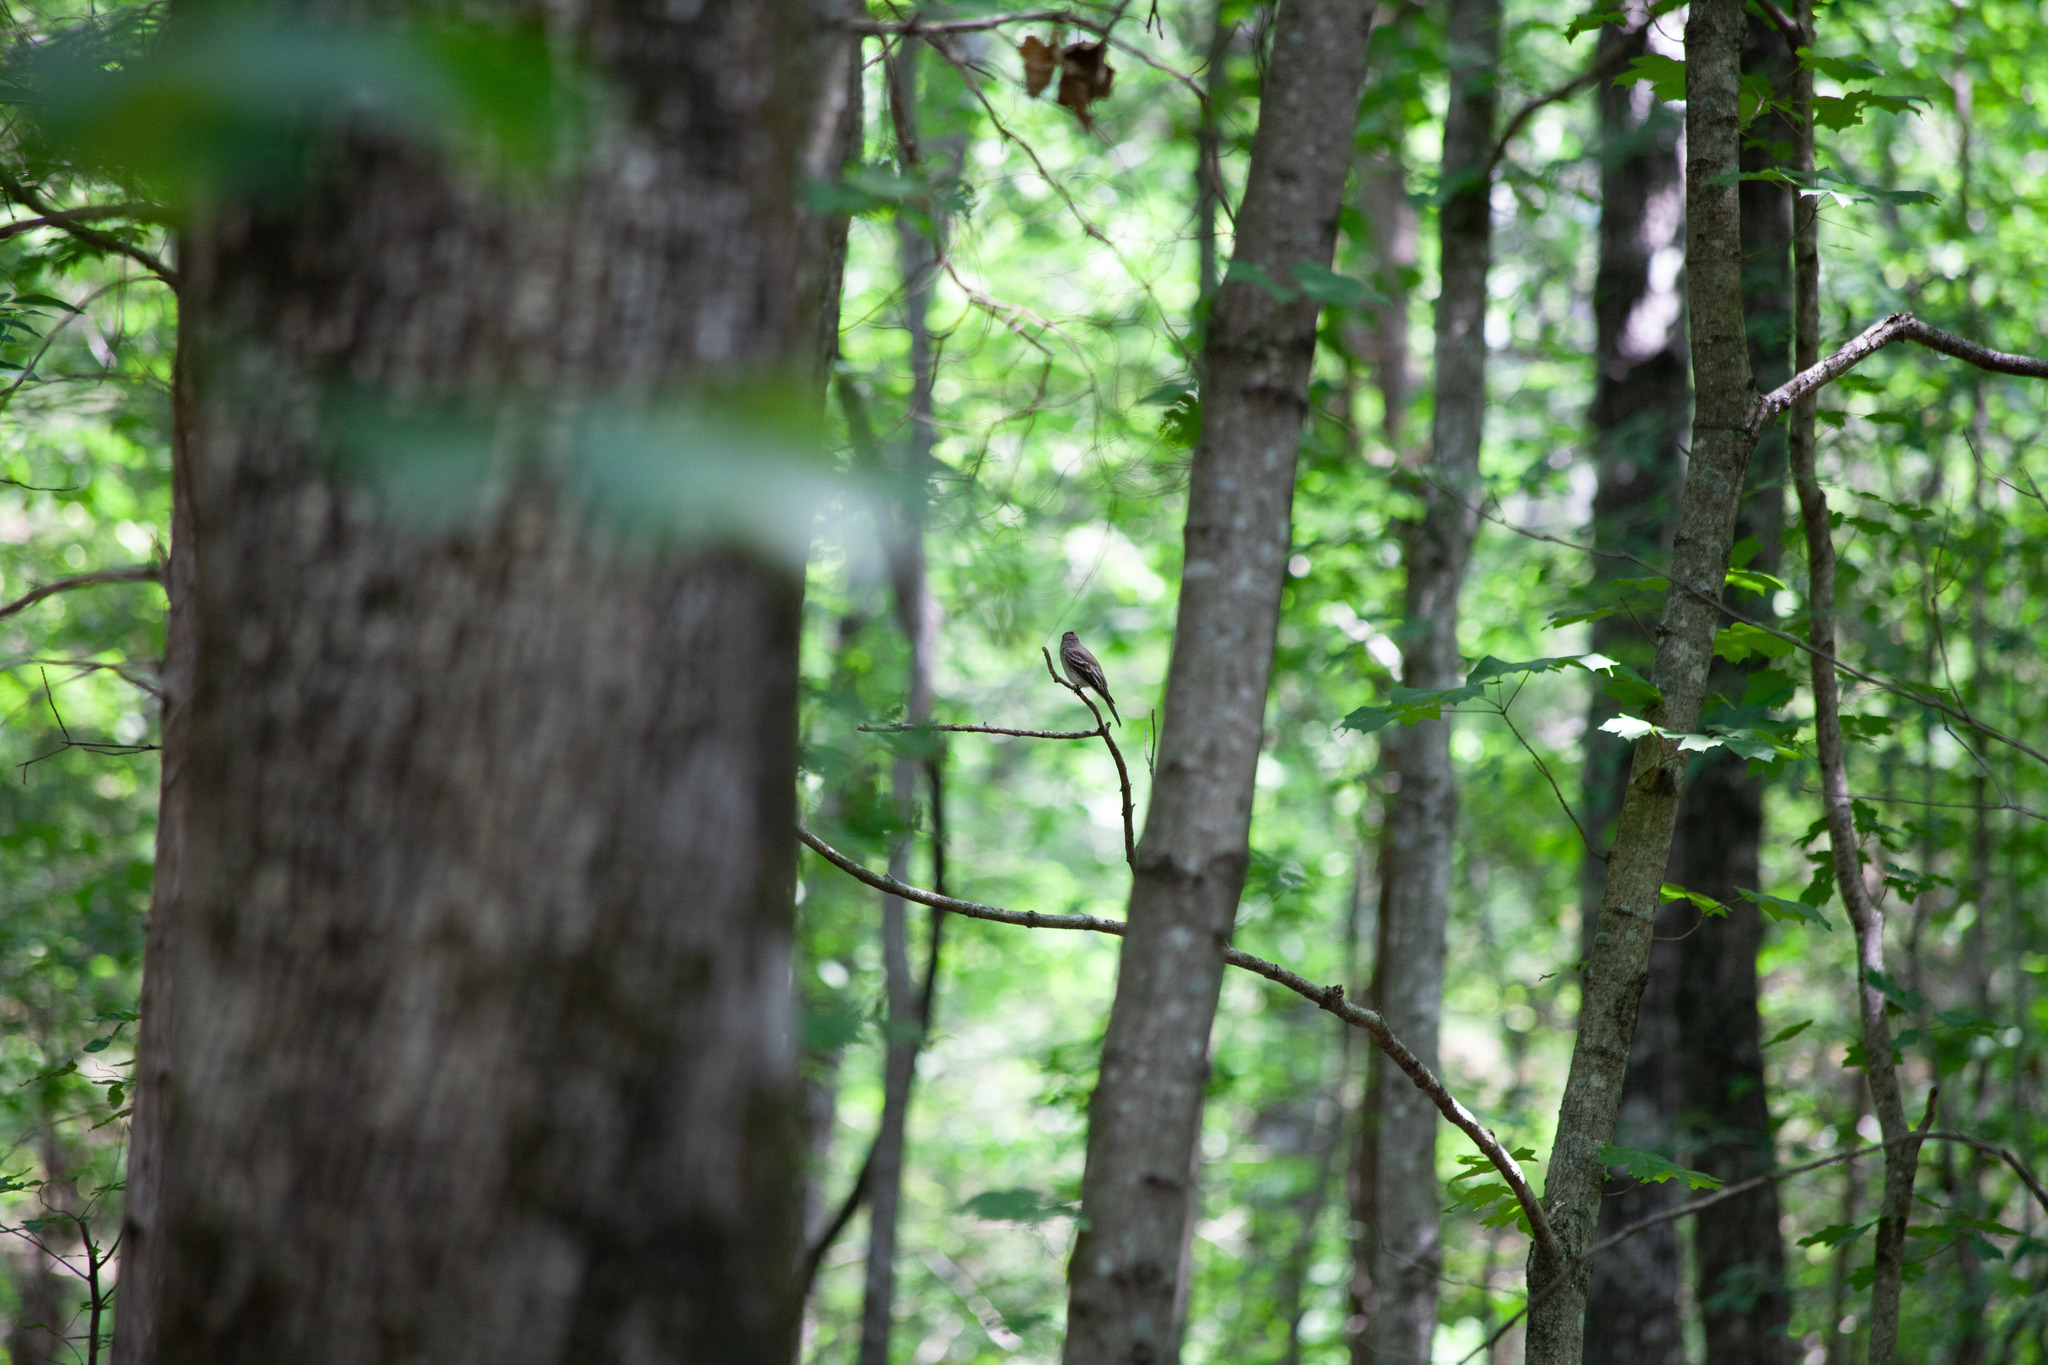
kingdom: Animalia
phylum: Chordata
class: Aves
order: Passeriformes
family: Tyrannidae
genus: Contopus
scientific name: Contopus virens
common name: Eastern wood-pewee
